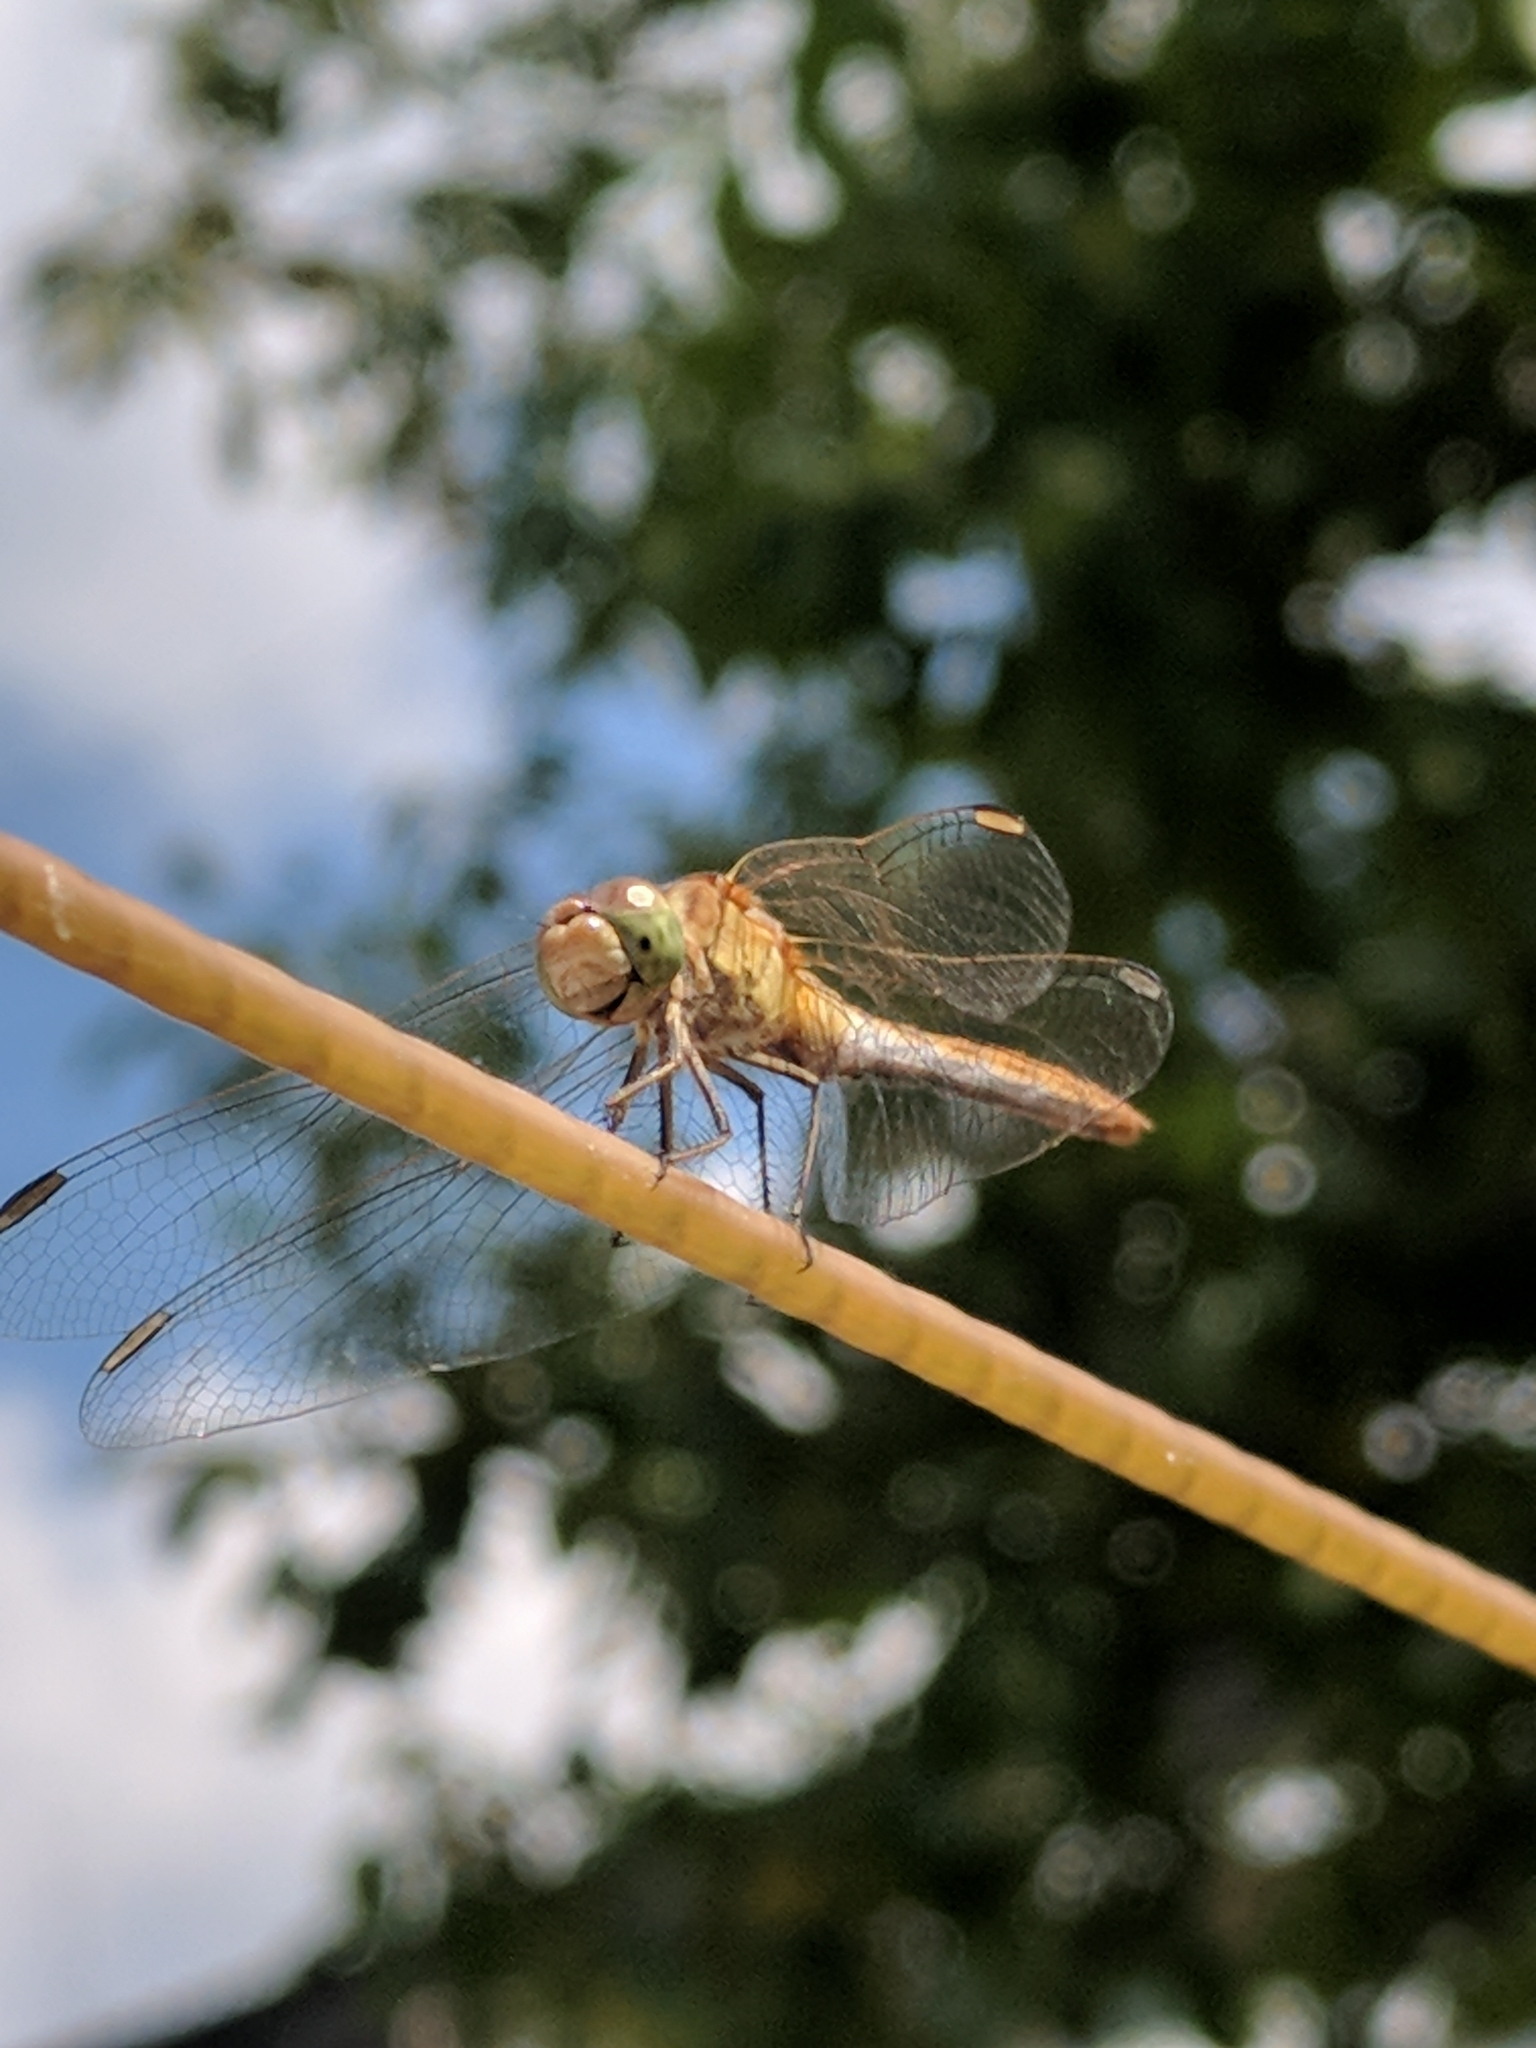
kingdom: Animalia
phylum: Arthropoda
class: Insecta
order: Odonata
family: Libellulidae
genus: Sympetrum
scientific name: Sympetrum meridionale
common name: Southern darter
